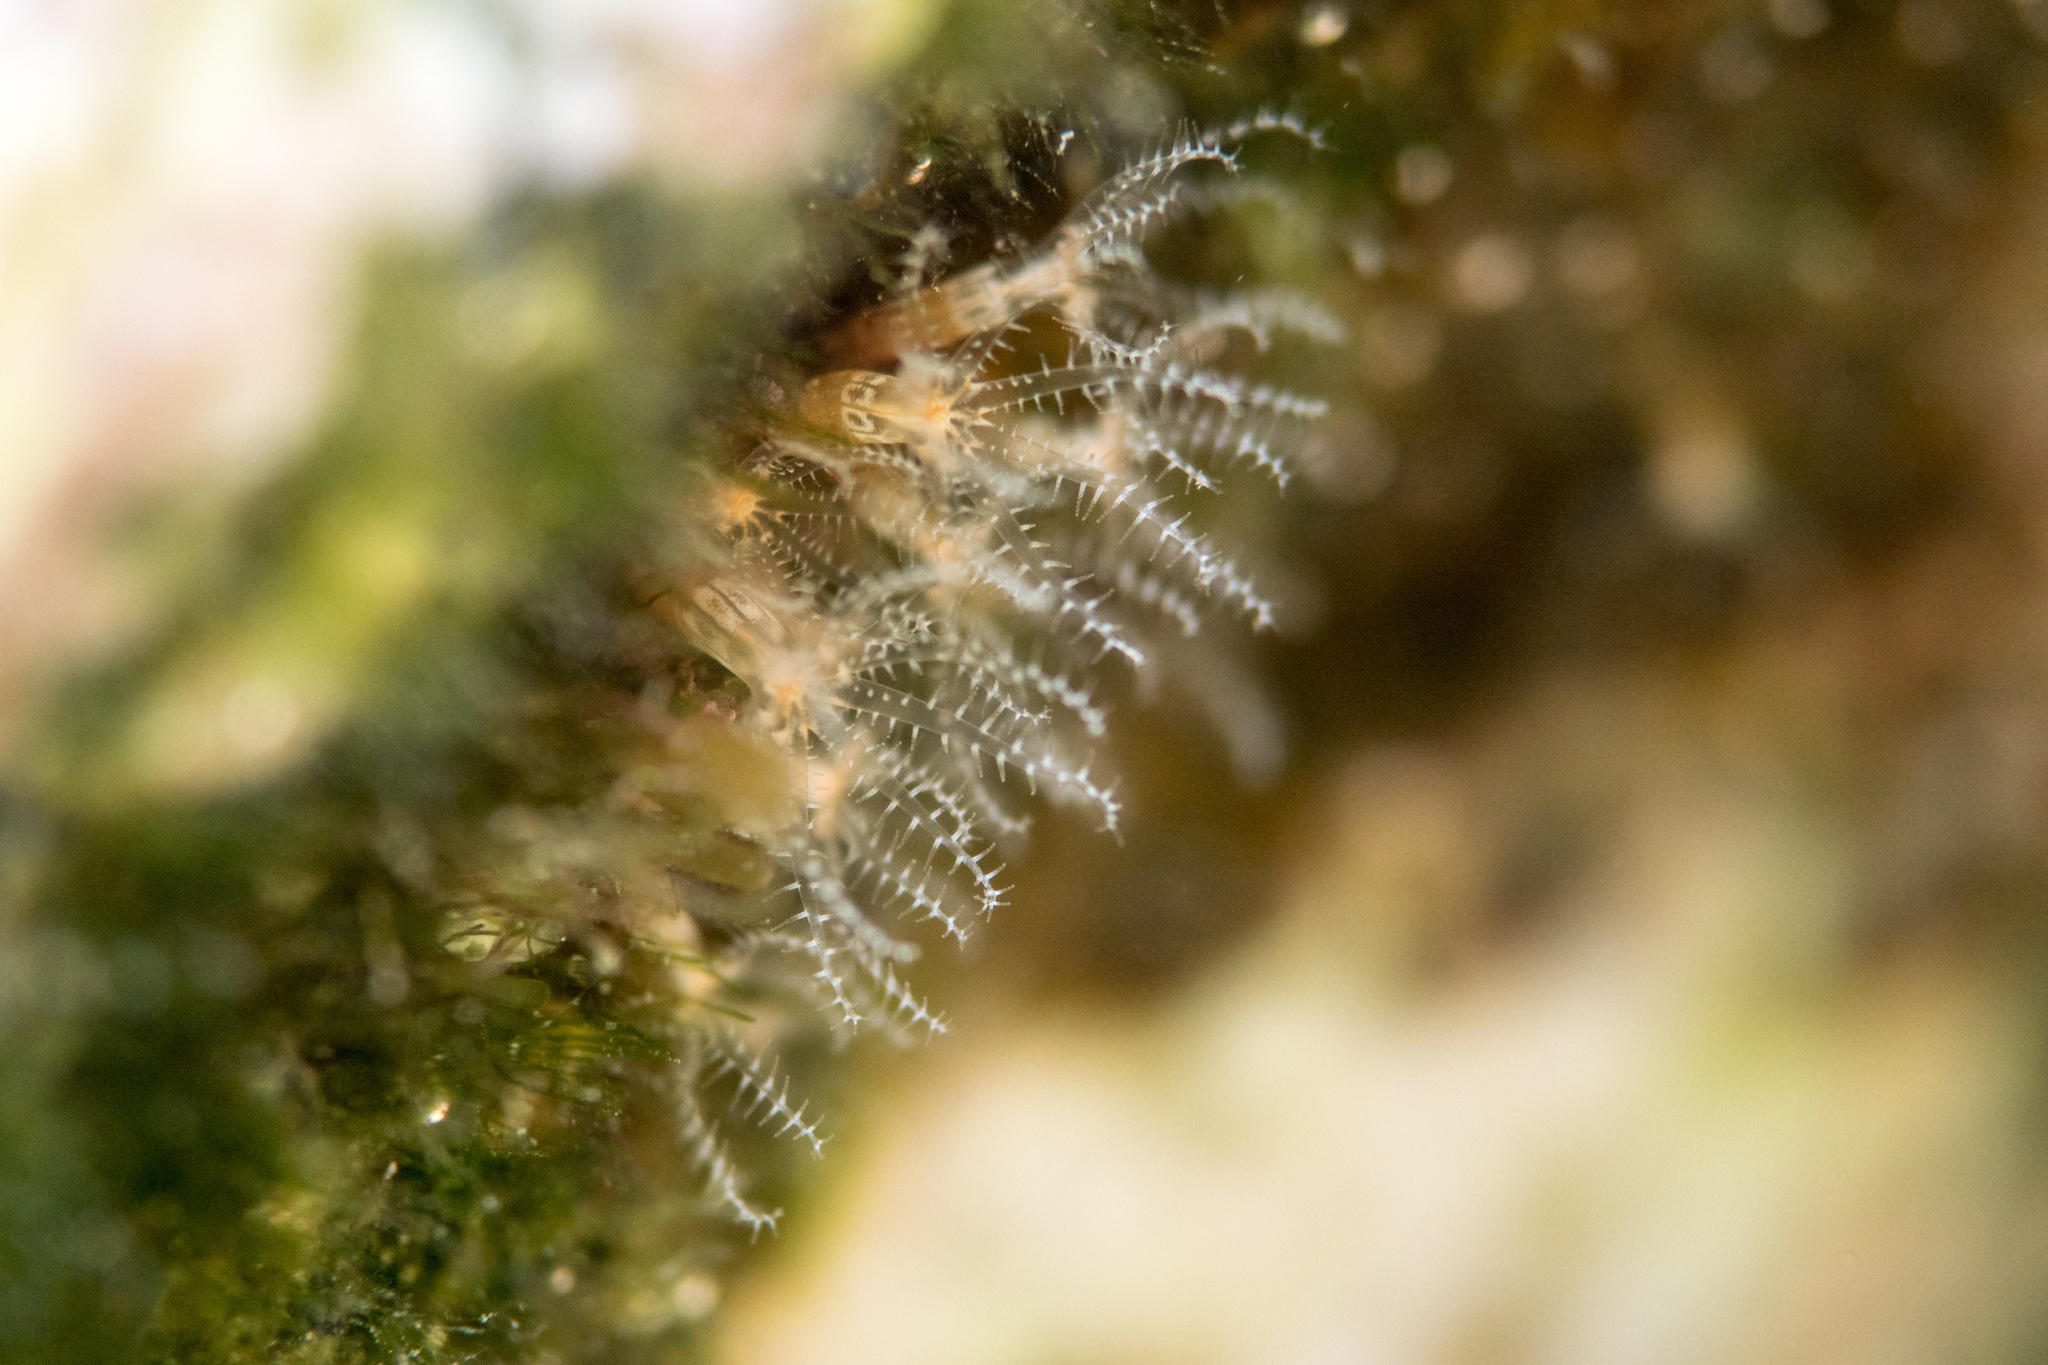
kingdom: Animalia
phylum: Cnidaria
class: Anthozoa
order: Malacalcyonacea
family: Clavulariidae
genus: Clavularia
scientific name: Clavularia crassa
